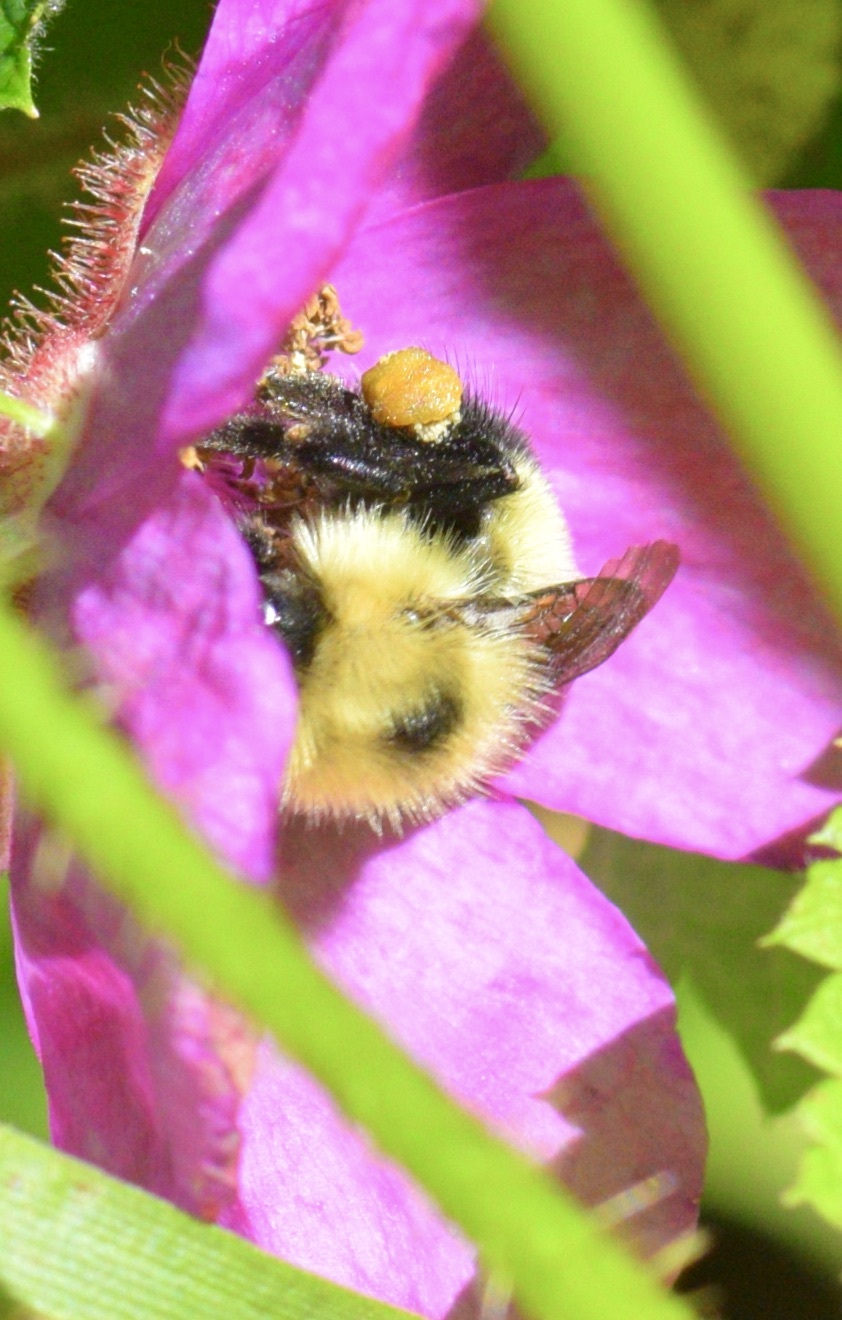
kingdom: Animalia
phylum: Arthropoda
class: Insecta
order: Hymenoptera
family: Apidae
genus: Pyrobombus
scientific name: Pyrobombus
